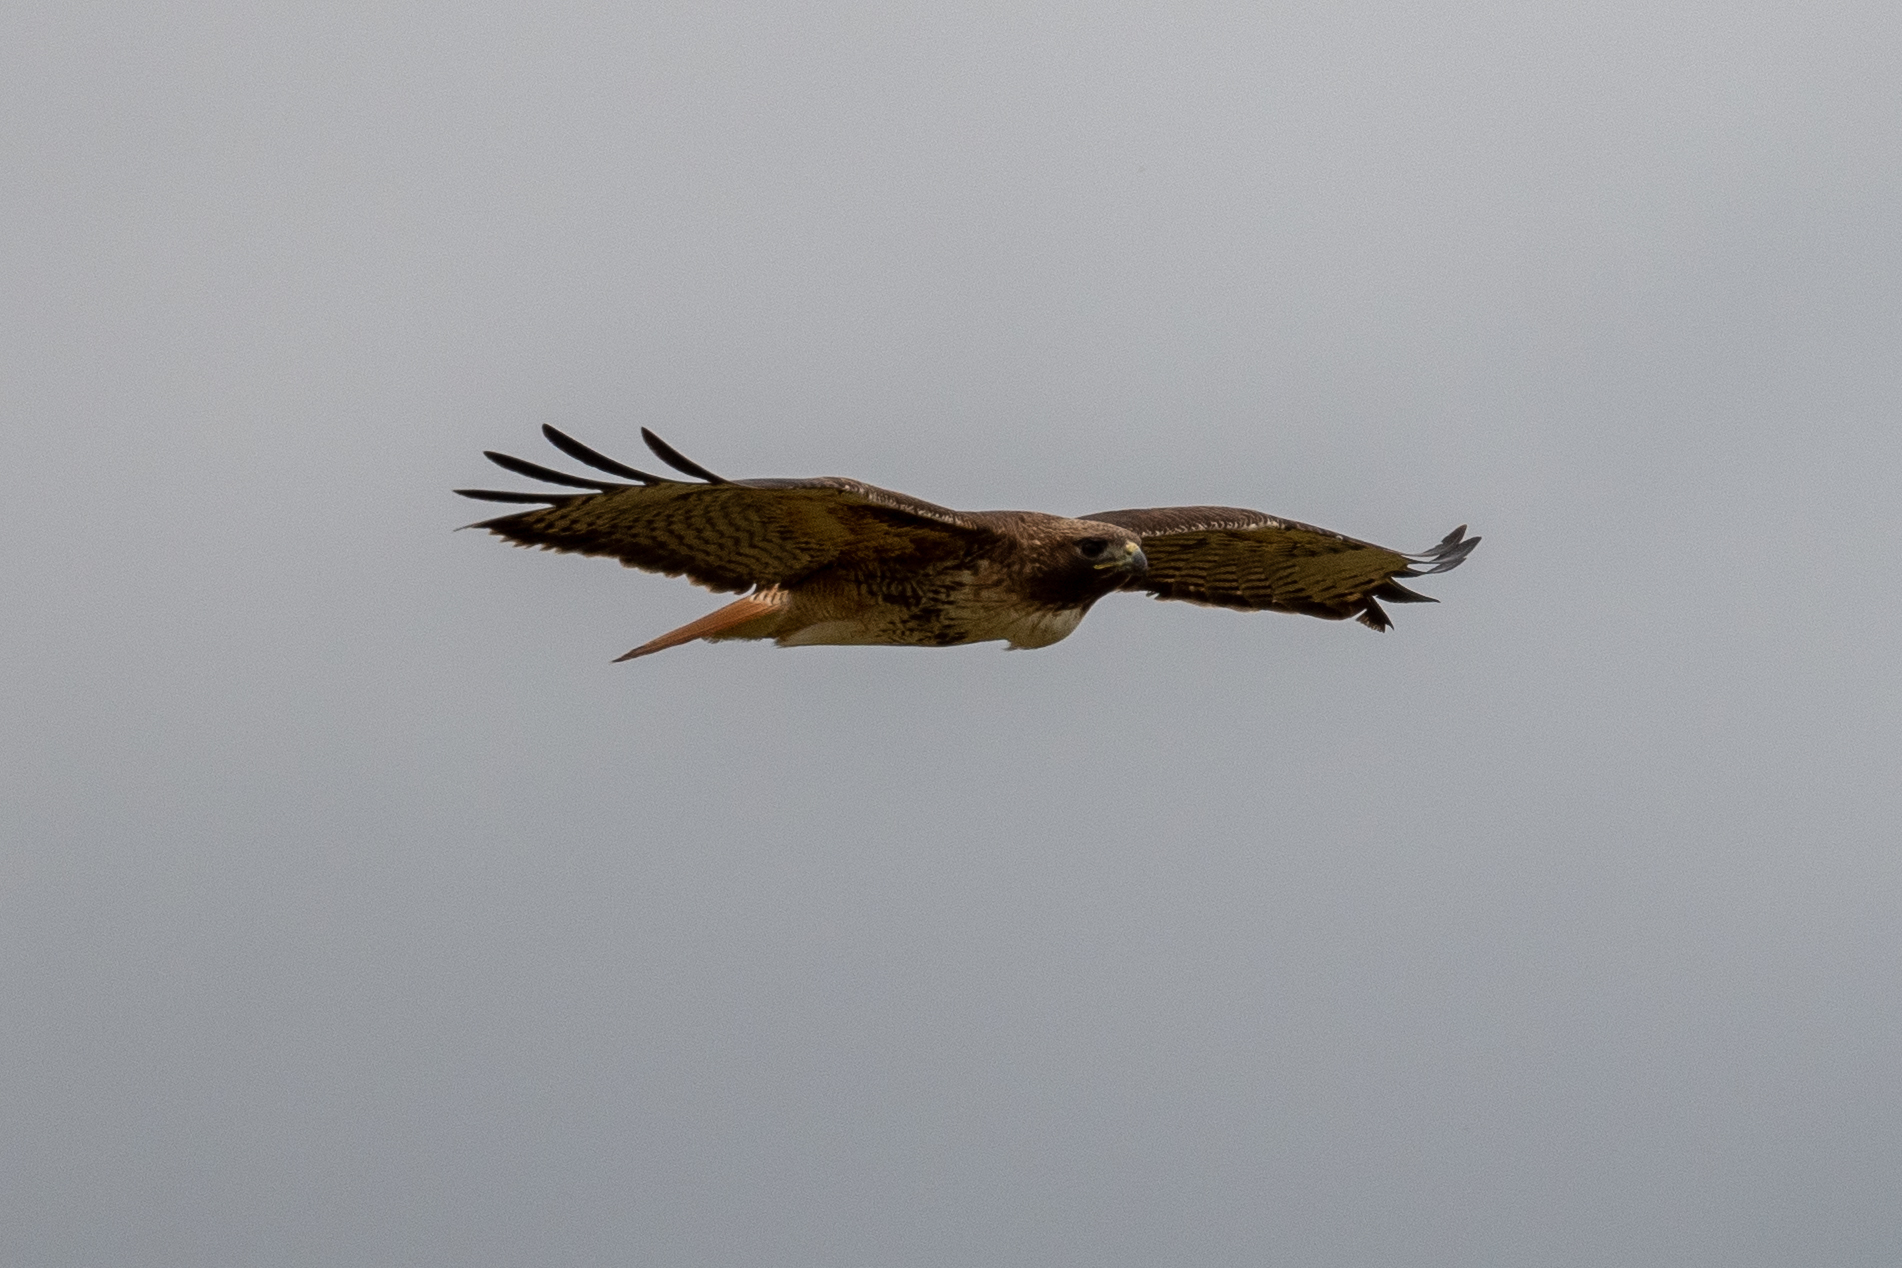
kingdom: Animalia
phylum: Chordata
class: Aves
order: Accipitriformes
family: Accipitridae
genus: Buteo
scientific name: Buteo jamaicensis
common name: Red-tailed hawk
